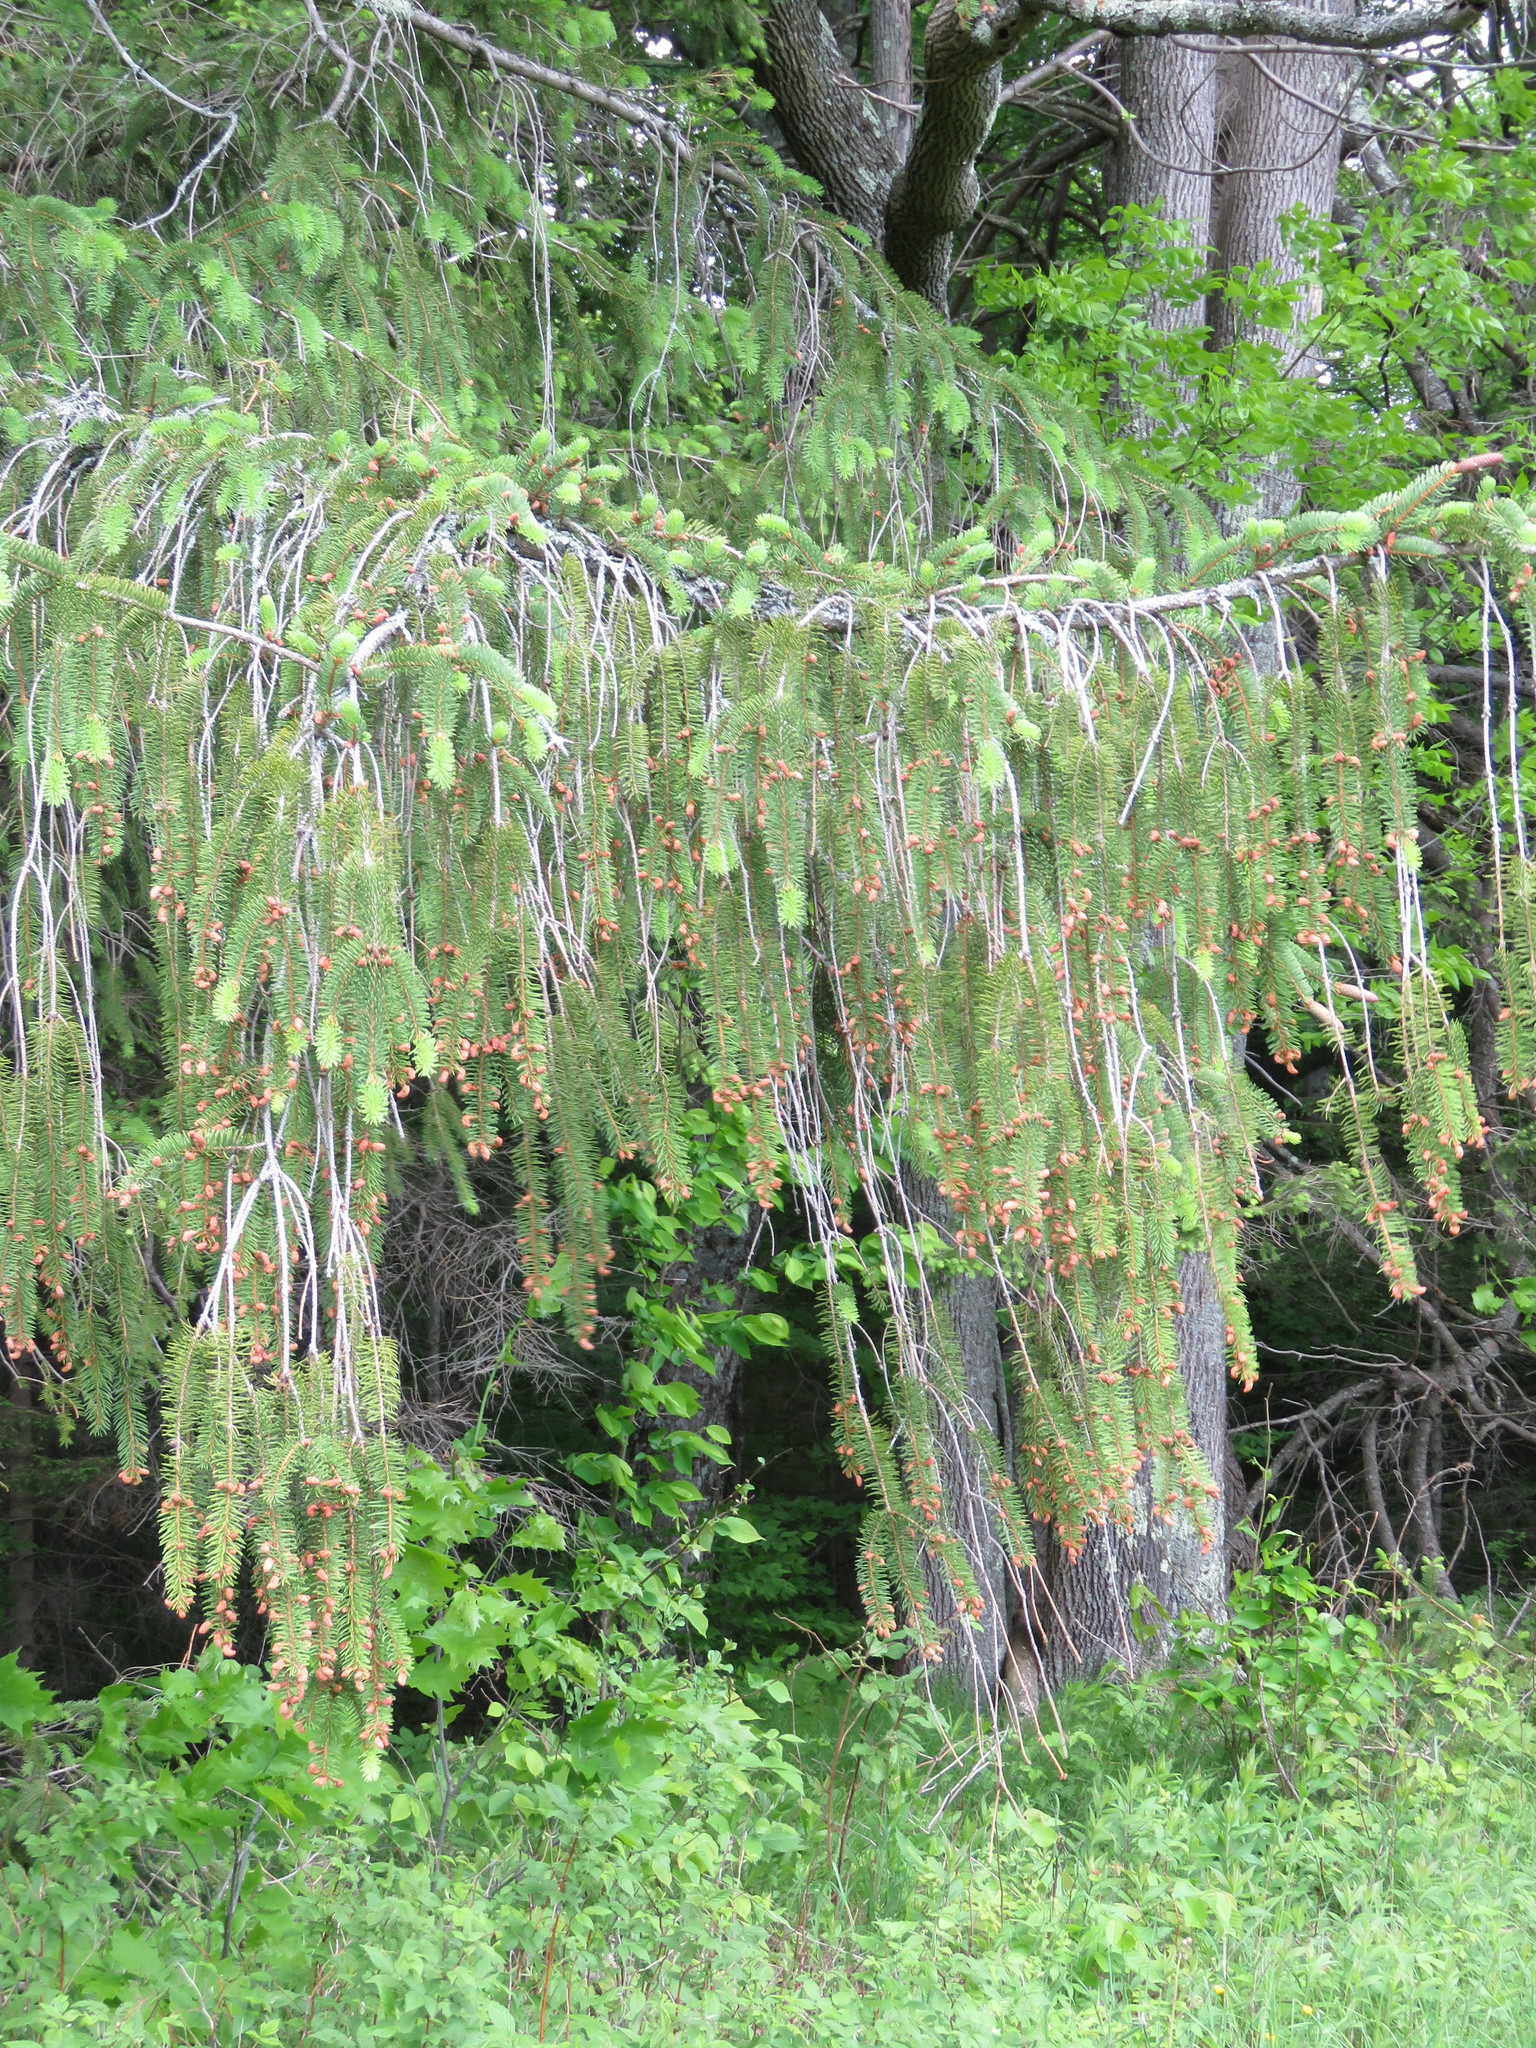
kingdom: Plantae
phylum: Tracheophyta
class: Pinopsida
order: Pinales
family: Pinaceae
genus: Picea
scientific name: Picea abies
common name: Norway spruce
